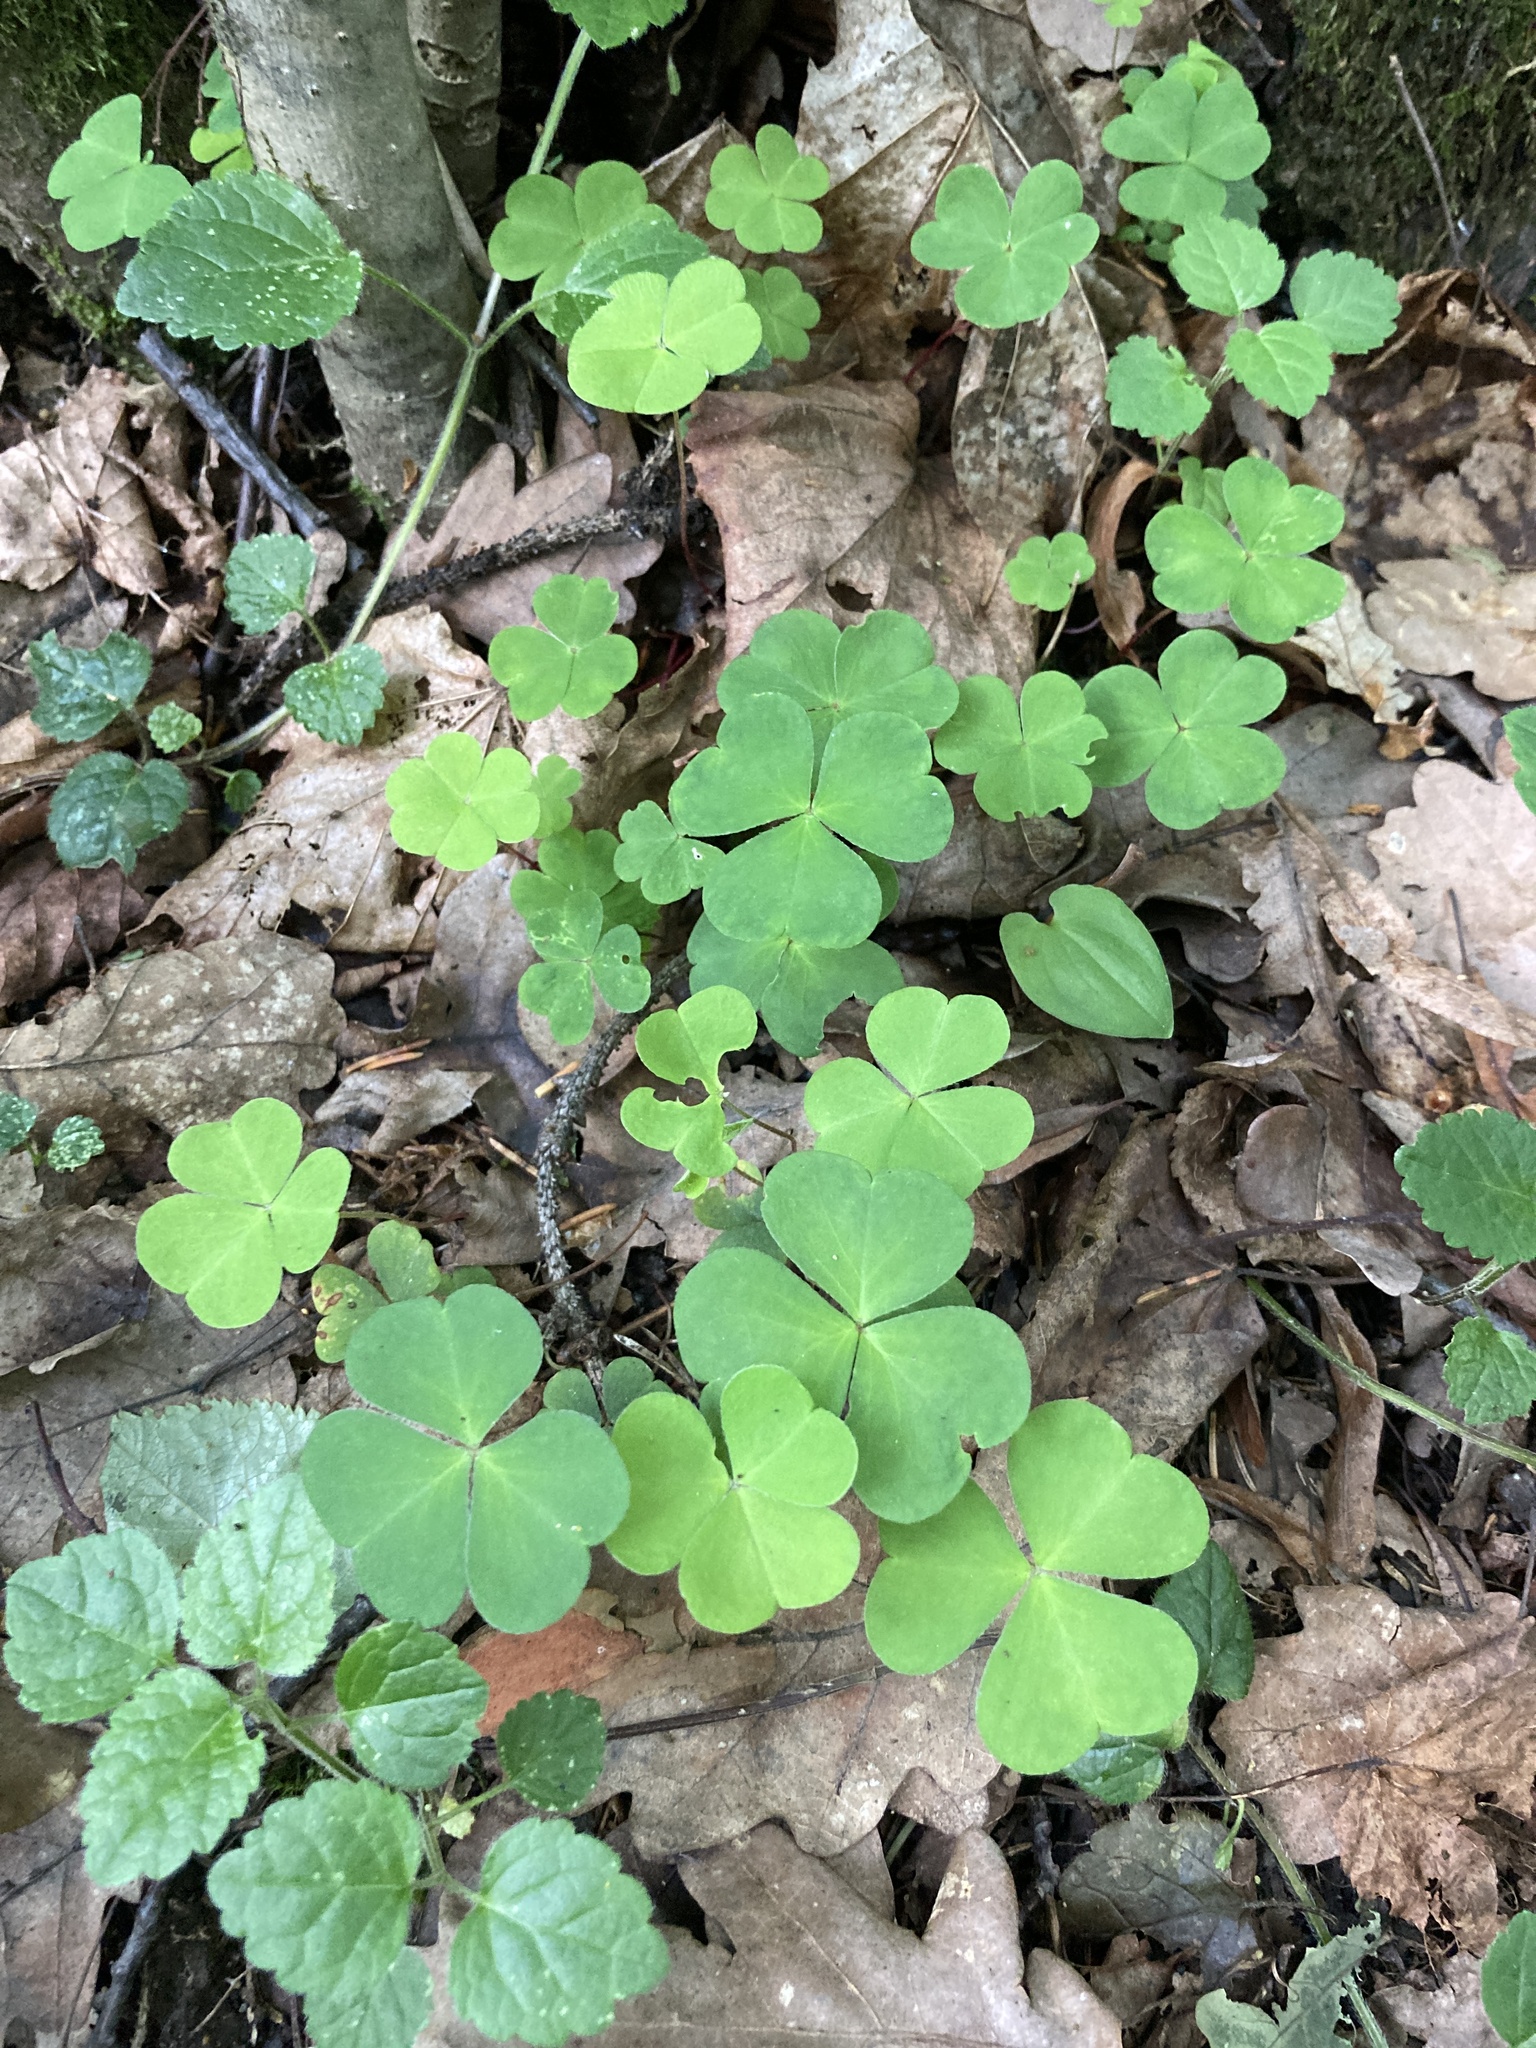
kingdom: Plantae
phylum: Tracheophyta
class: Magnoliopsida
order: Oxalidales
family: Oxalidaceae
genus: Oxalis
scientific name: Oxalis acetosella
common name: Wood-sorrel
